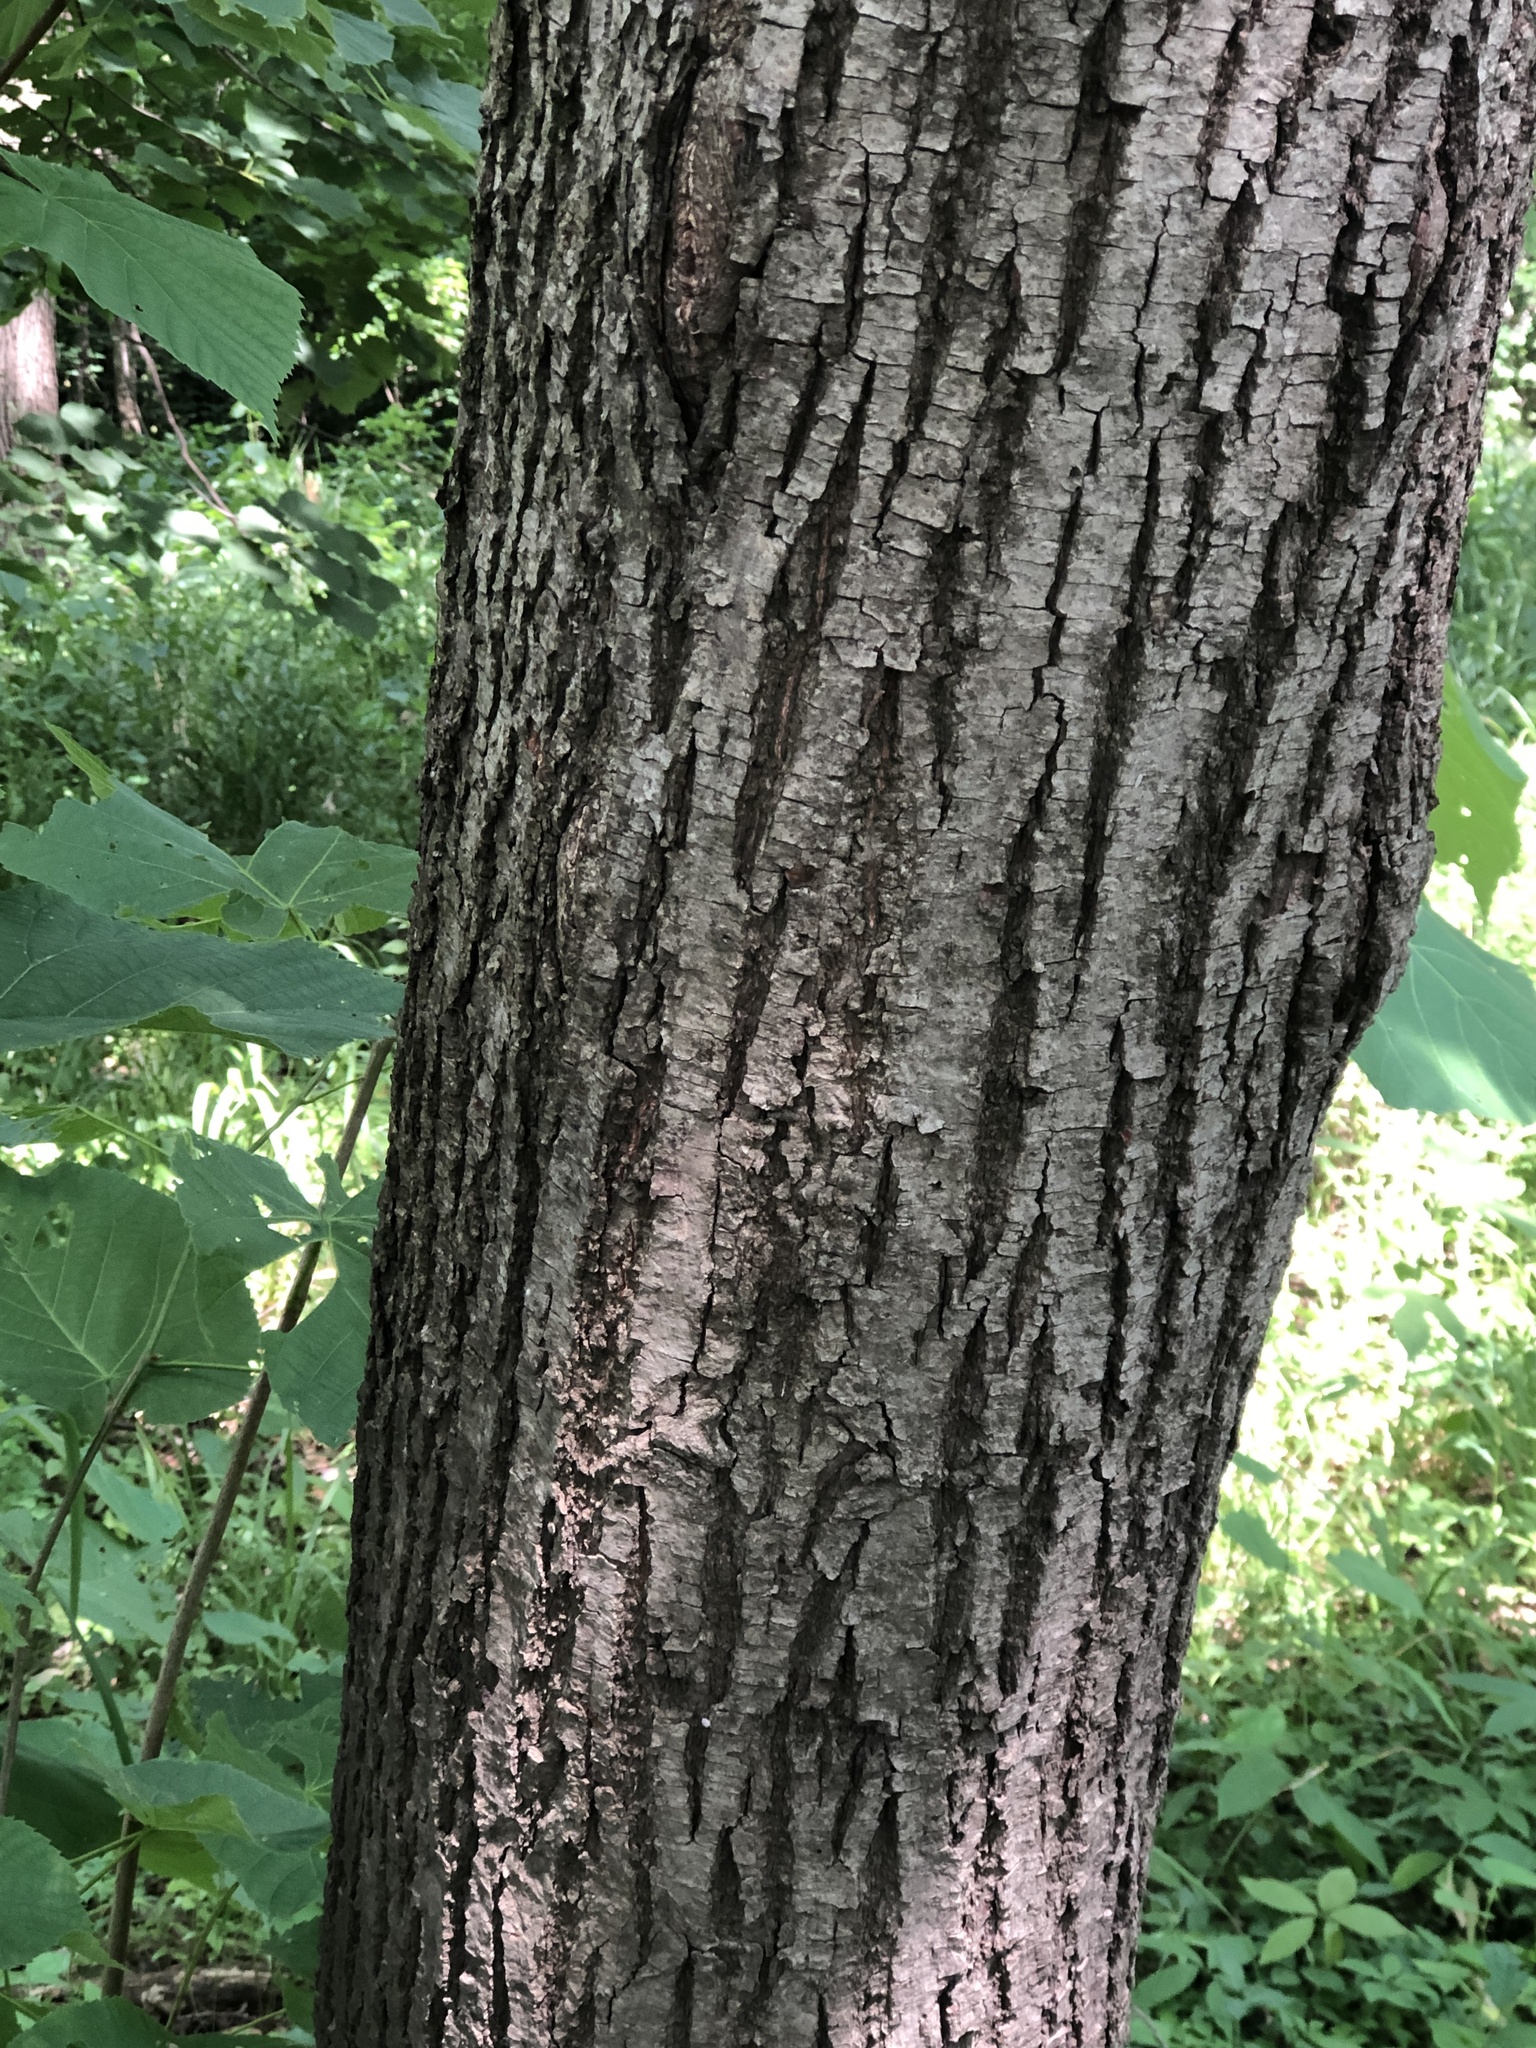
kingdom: Plantae
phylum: Tracheophyta
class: Magnoliopsida
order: Malvales
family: Malvaceae
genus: Tilia
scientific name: Tilia americana
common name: Basswood
